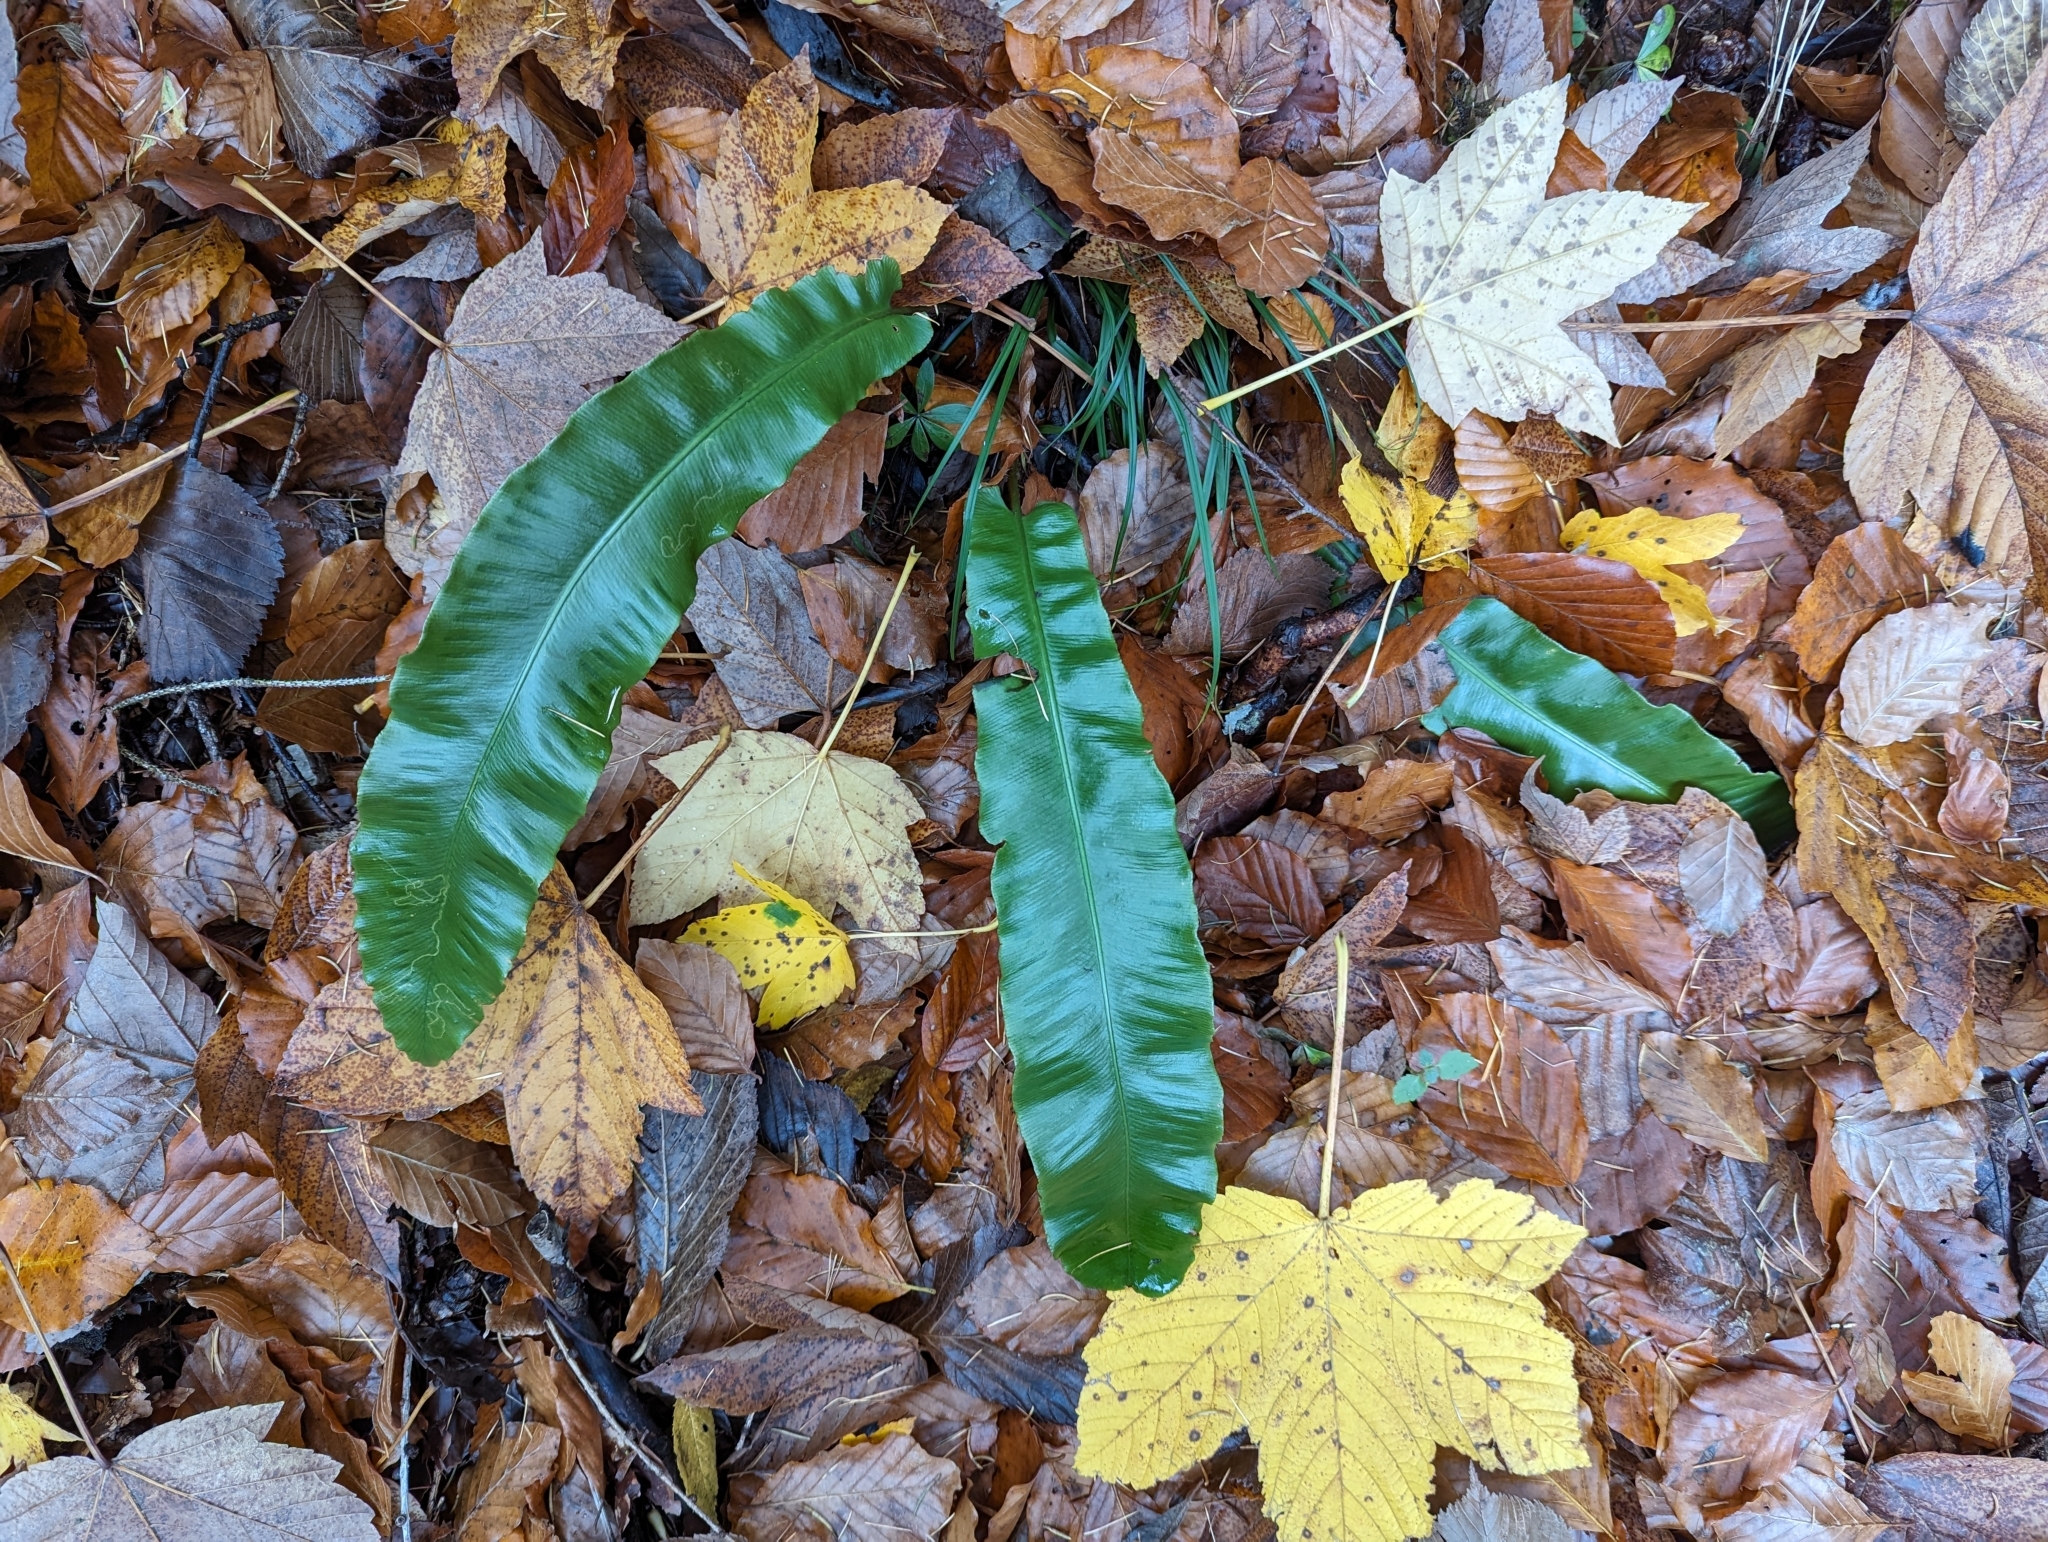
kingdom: Plantae
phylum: Tracheophyta
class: Polypodiopsida
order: Polypodiales
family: Aspleniaceae
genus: Asplenium
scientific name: Asplenium scolopendrium
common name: Hart's-tongue fern
